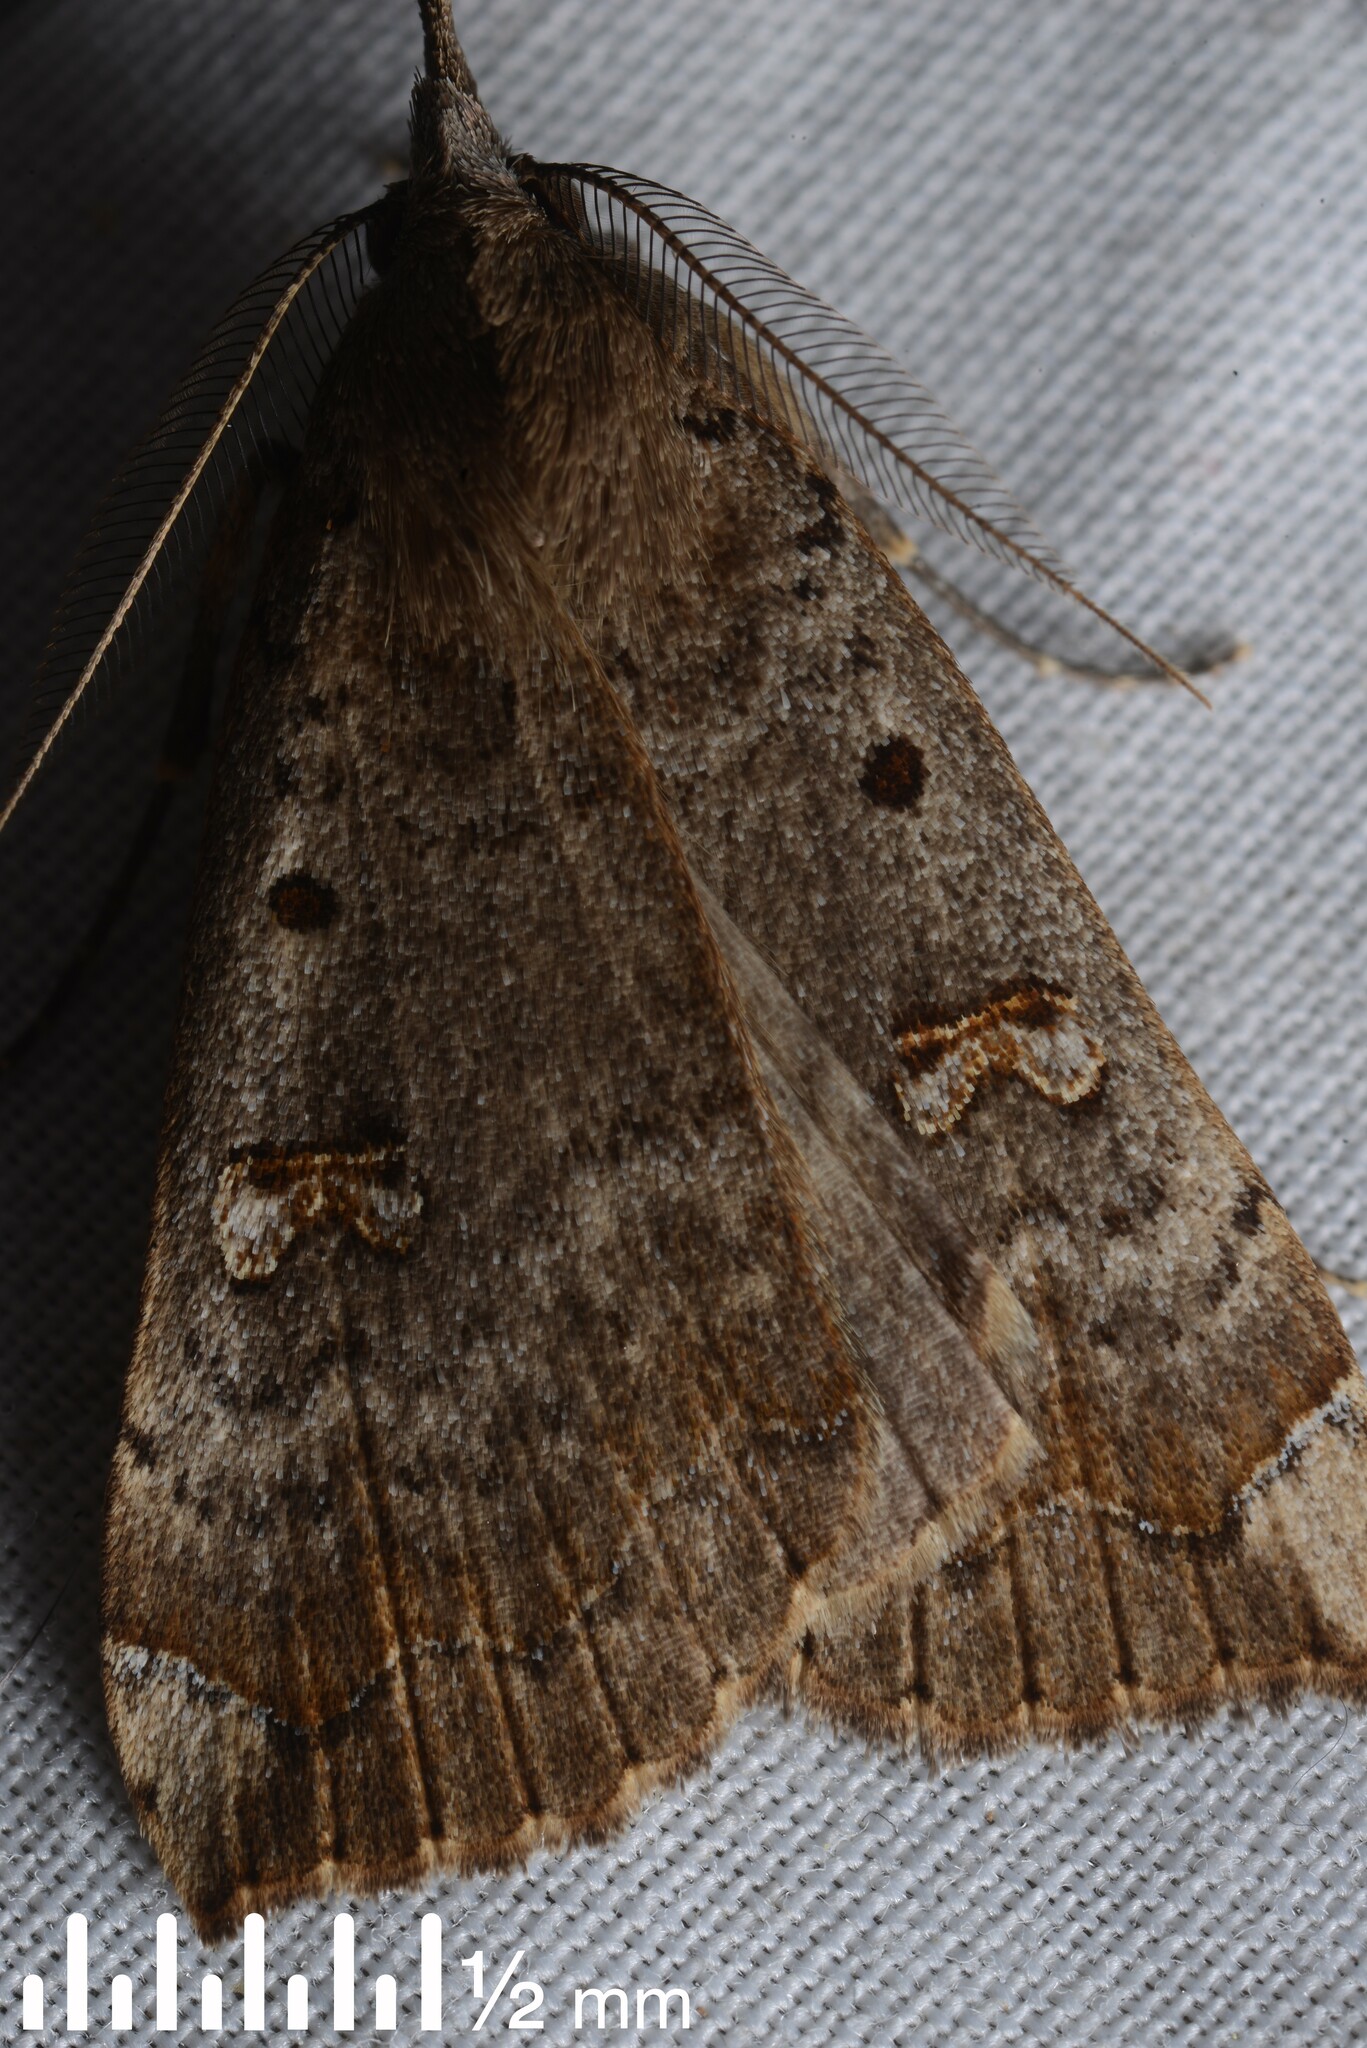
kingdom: Animalia
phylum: Arthropoda
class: Insecta
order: Lepidoptera
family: Erebidae
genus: Rhapsa
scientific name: Rhapsa scotosialis
